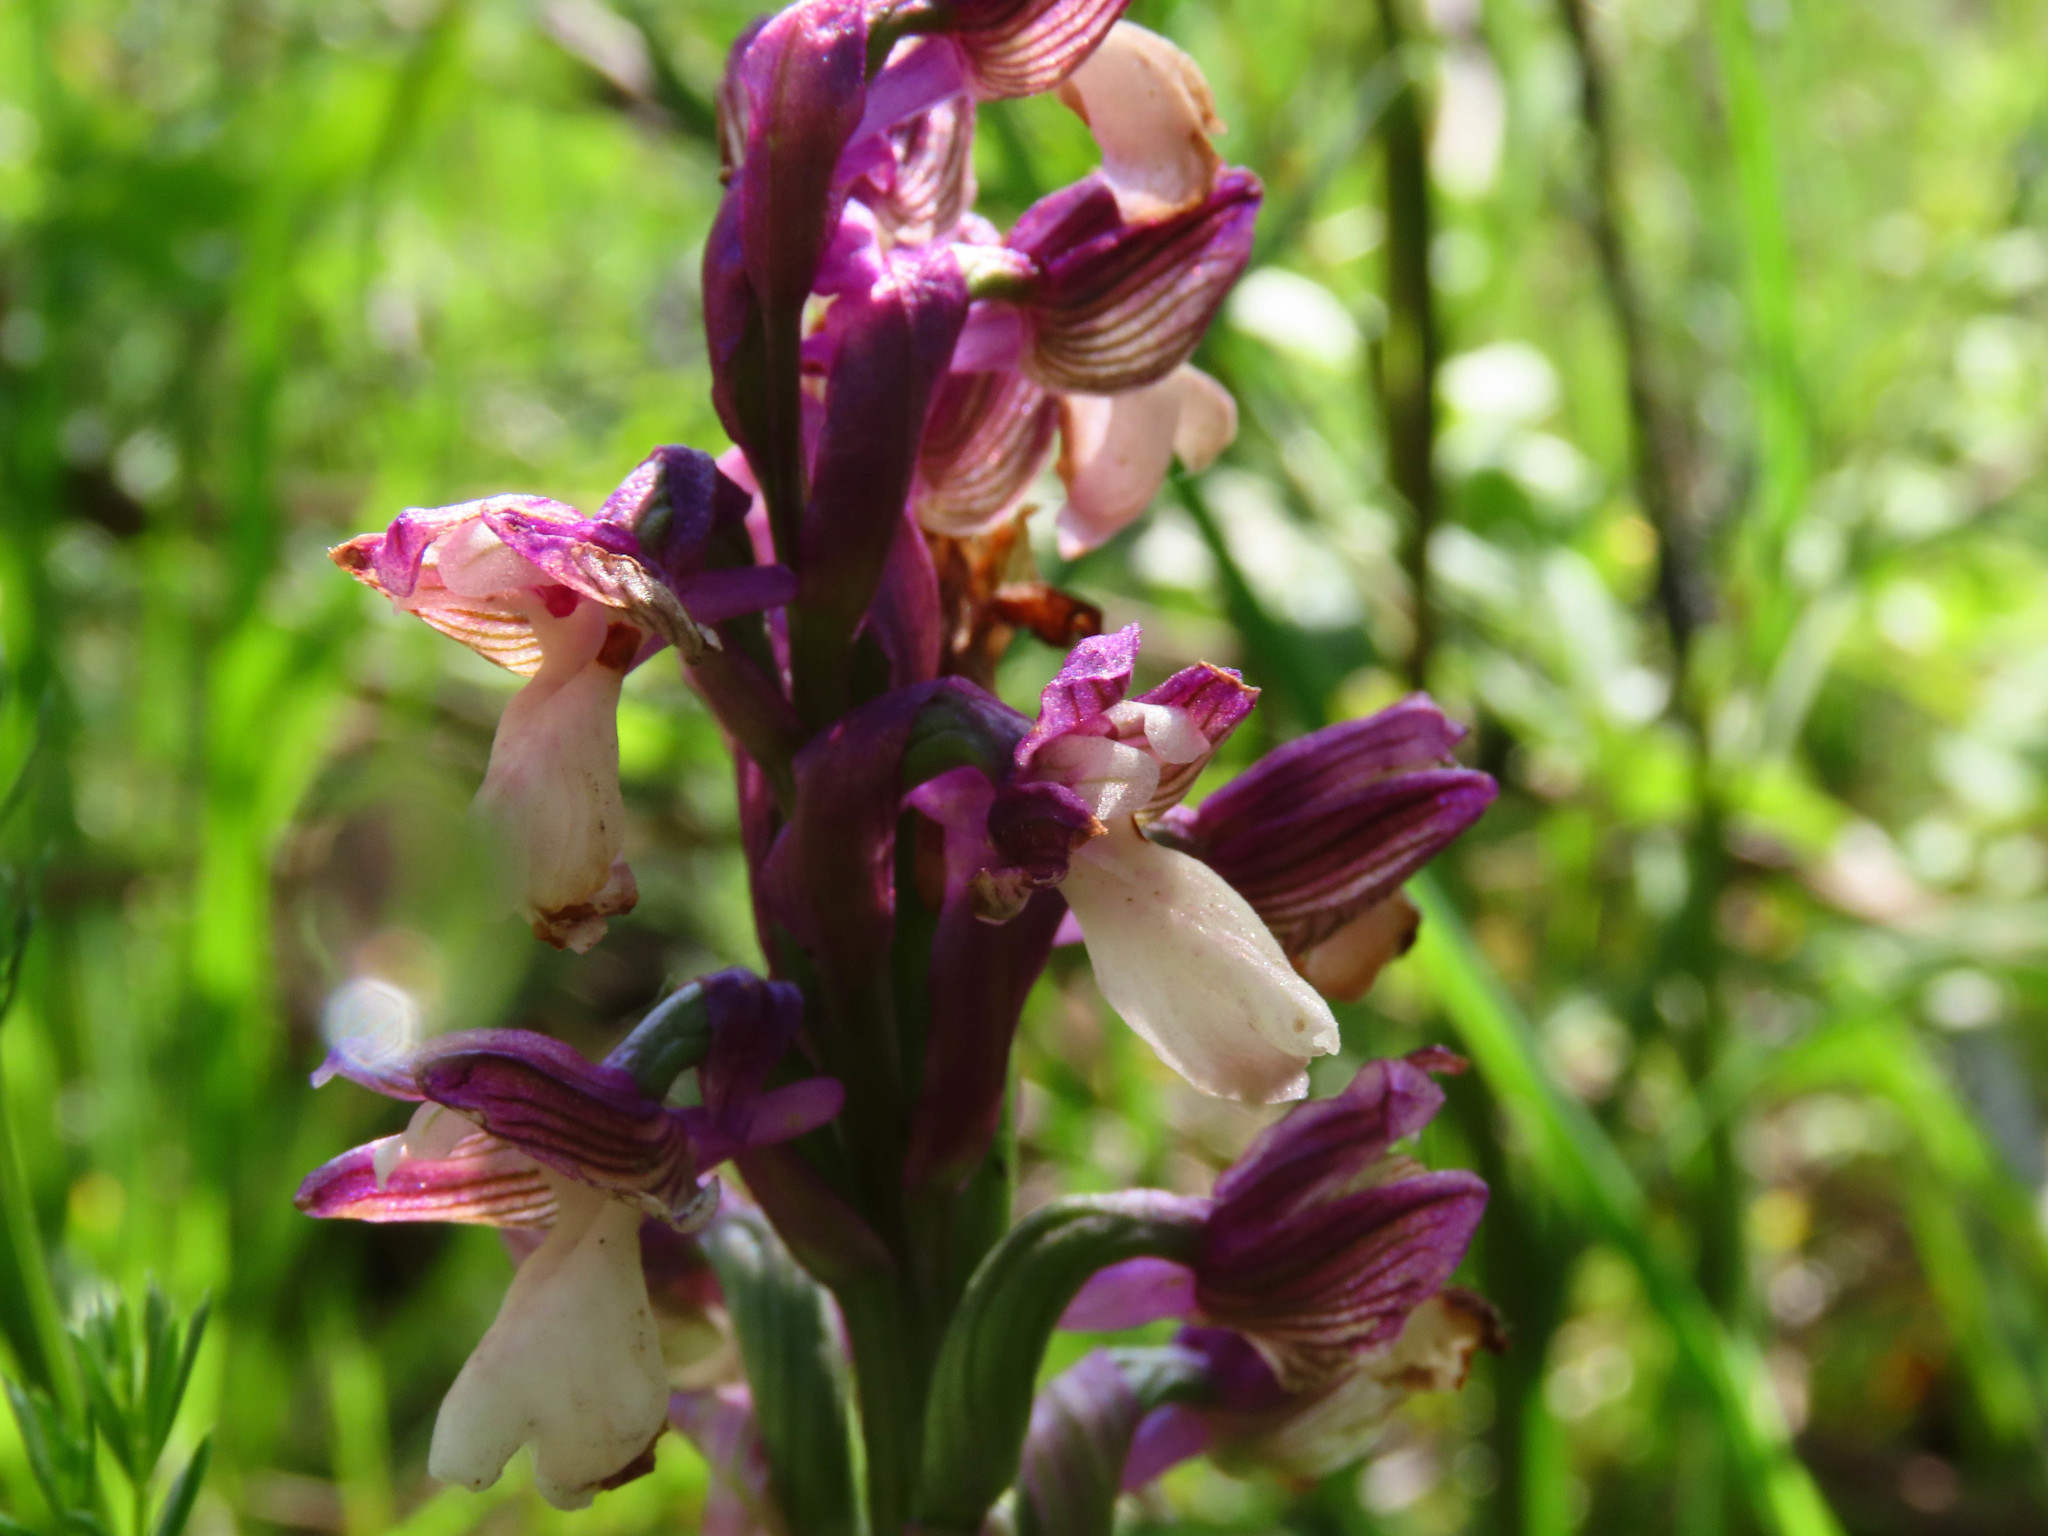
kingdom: Plantae
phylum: Tracheophyta
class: Liliopsida
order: Asparagales
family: Orchidaceae
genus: Anacamptis
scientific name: Anacamptis morio
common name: Green-winged orchid
